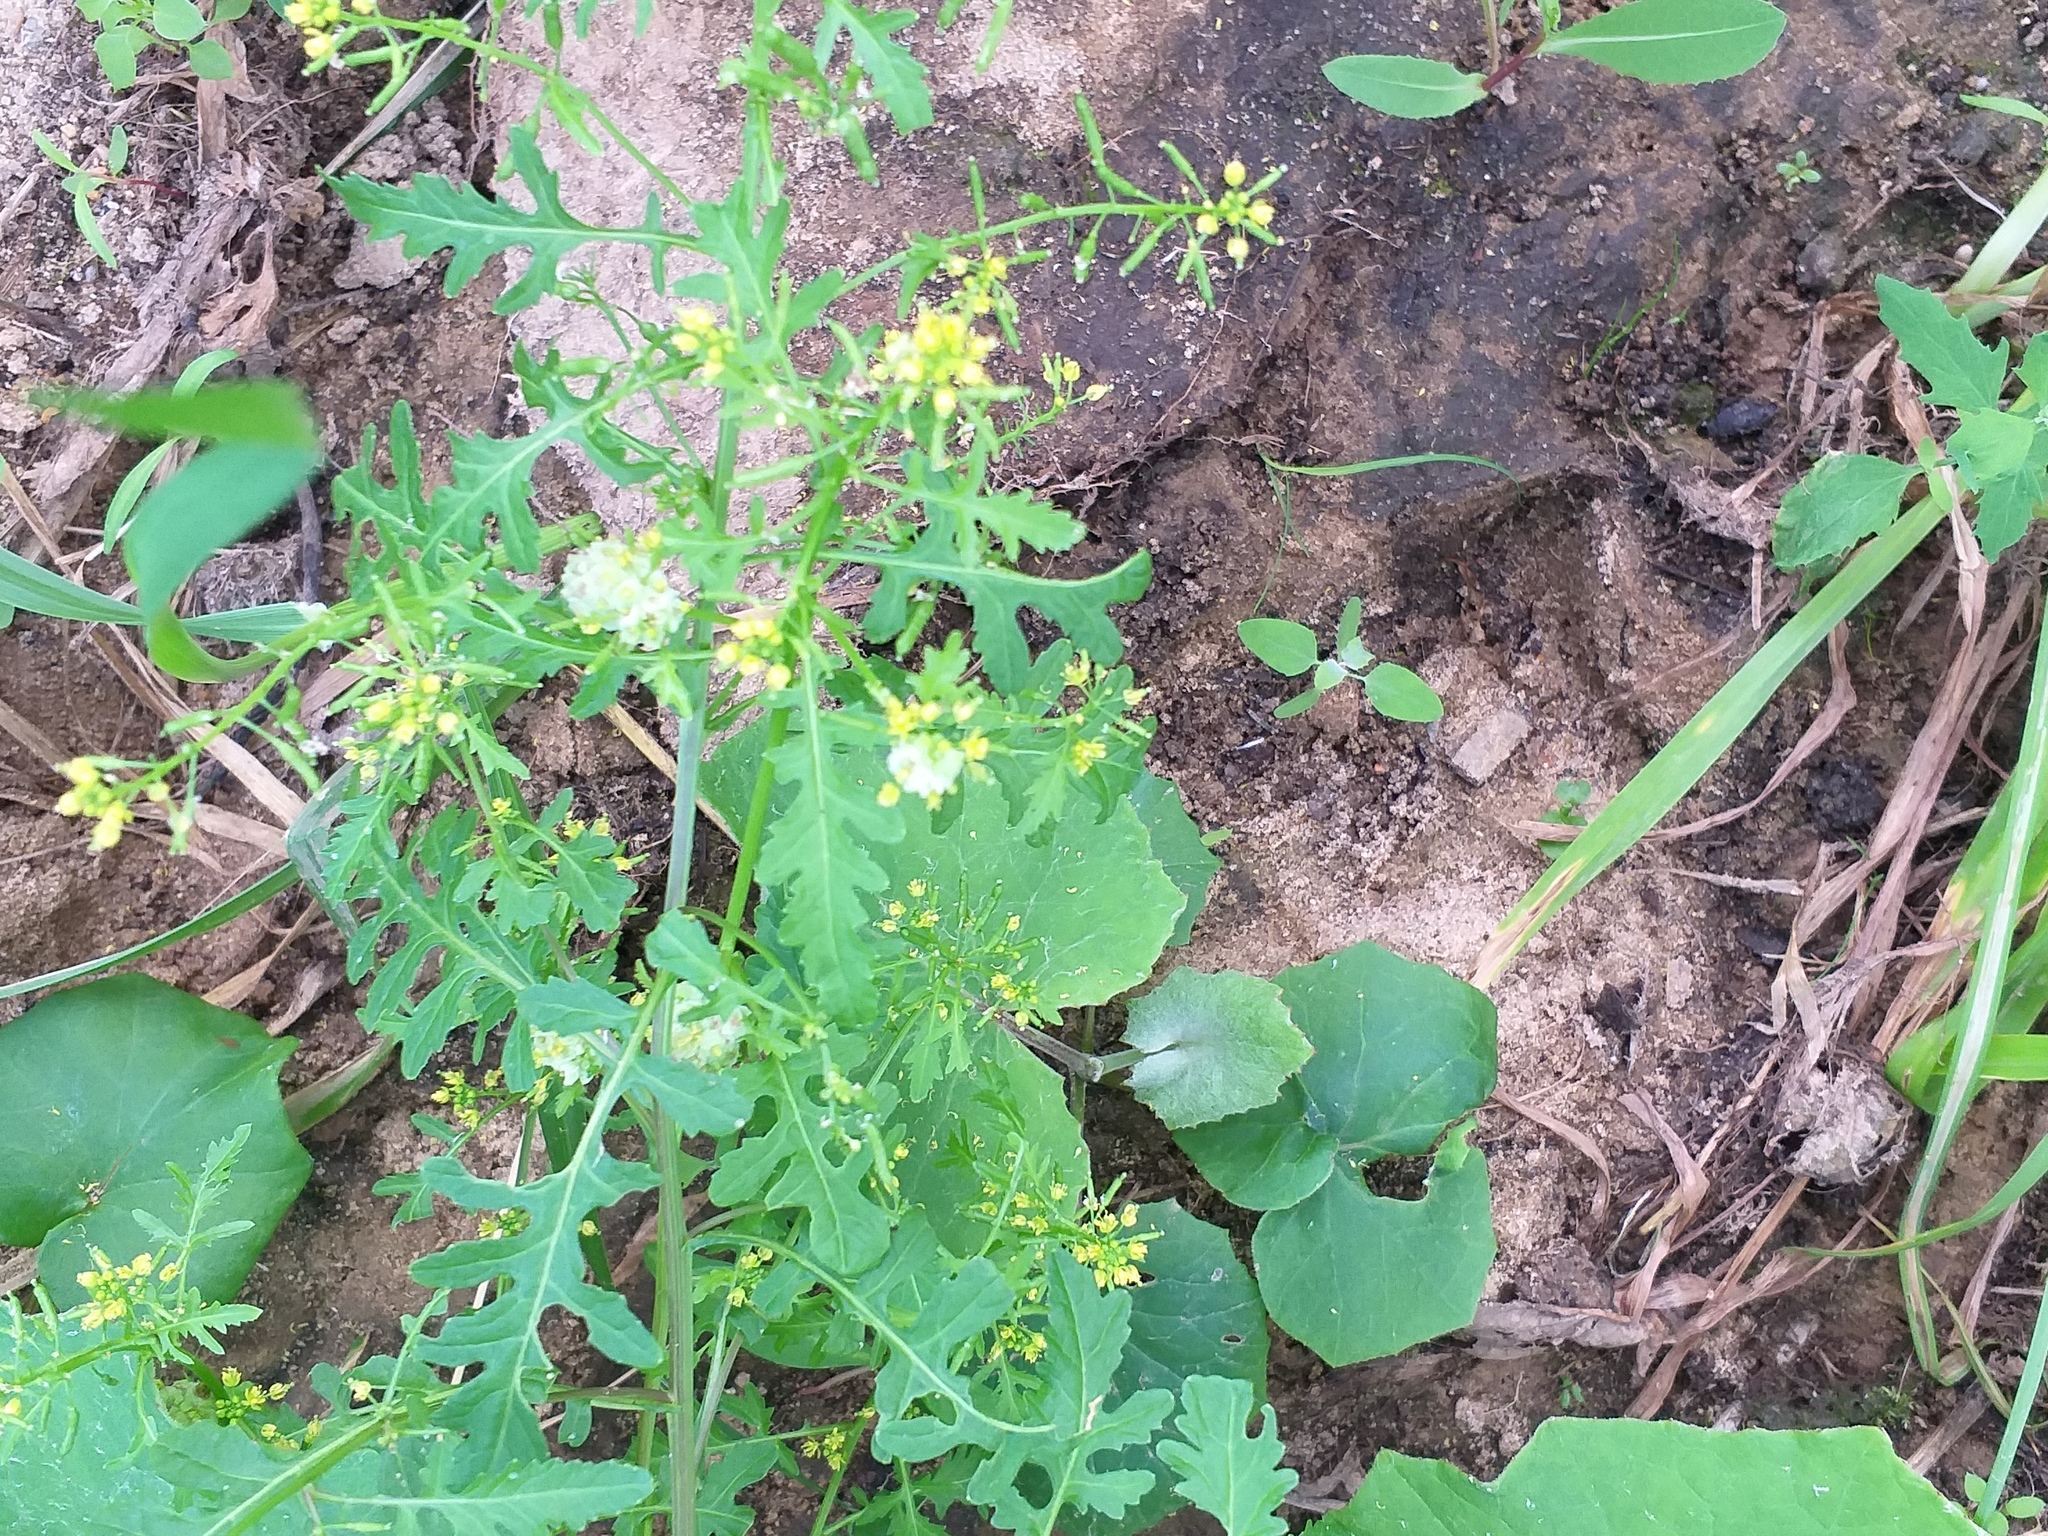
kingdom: Plantae
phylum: Tracheophyta
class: Magnoliopsida
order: Brassicales
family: Brassicaceae
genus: Rorippa
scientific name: Rorippa palustris
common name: Marsh yellow-cress
